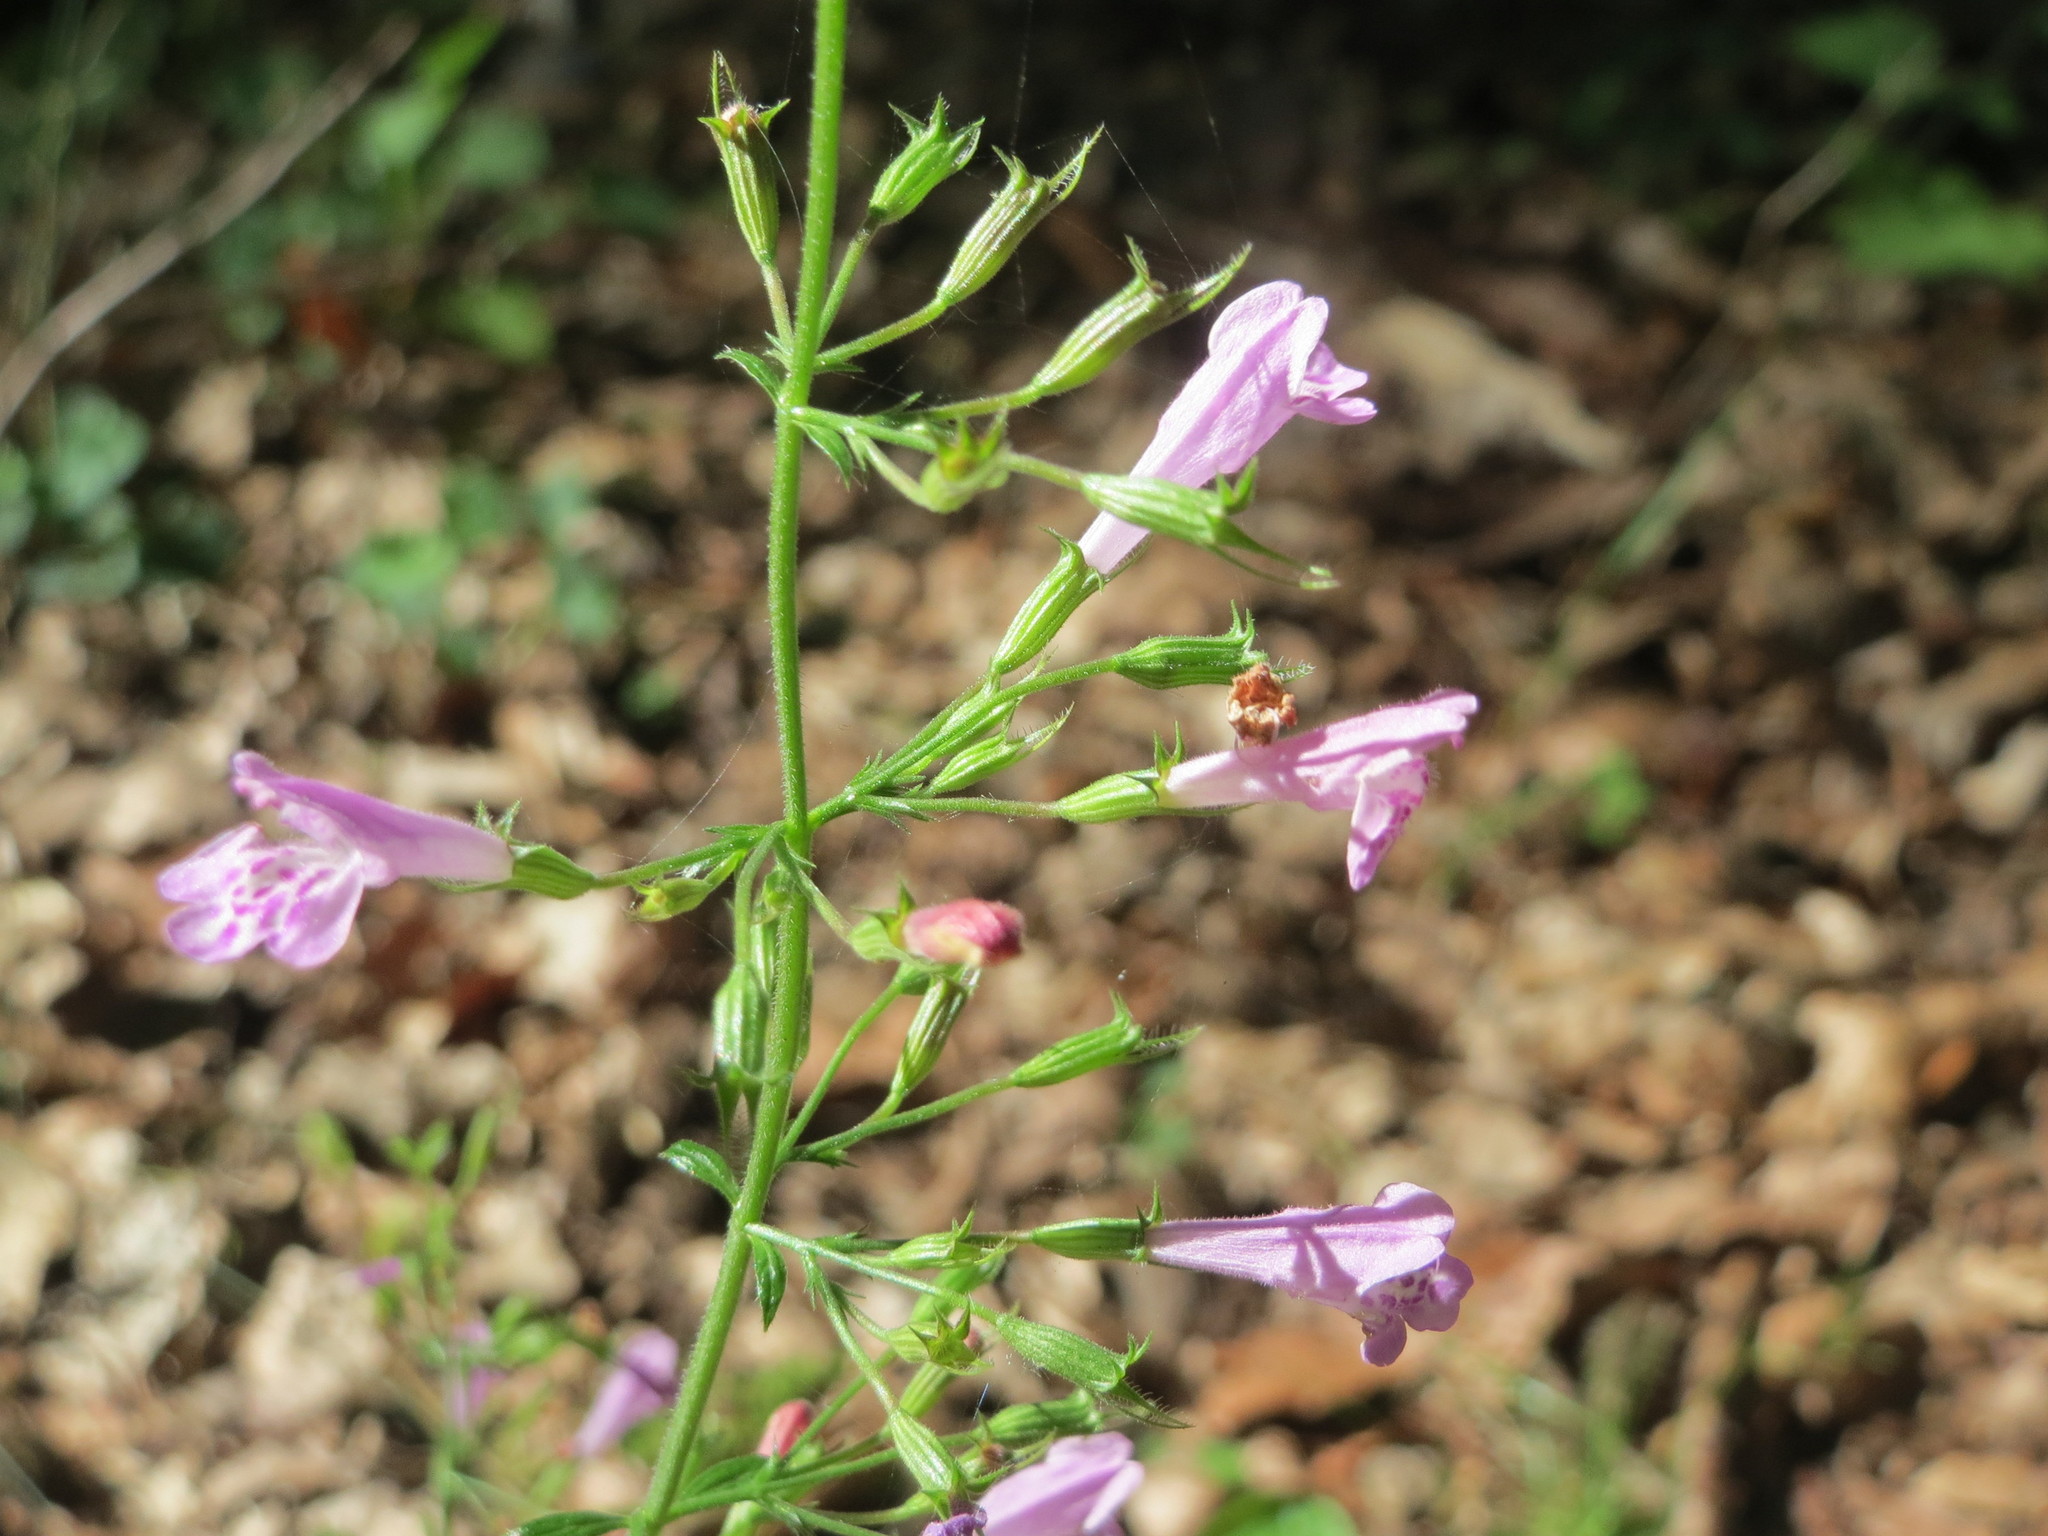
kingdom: Plantae
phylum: Tracheophyta
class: Magnoliopsida
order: Lamiales
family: Lamiaceae
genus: Clinopodium
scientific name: Clinopodium menthifolium
